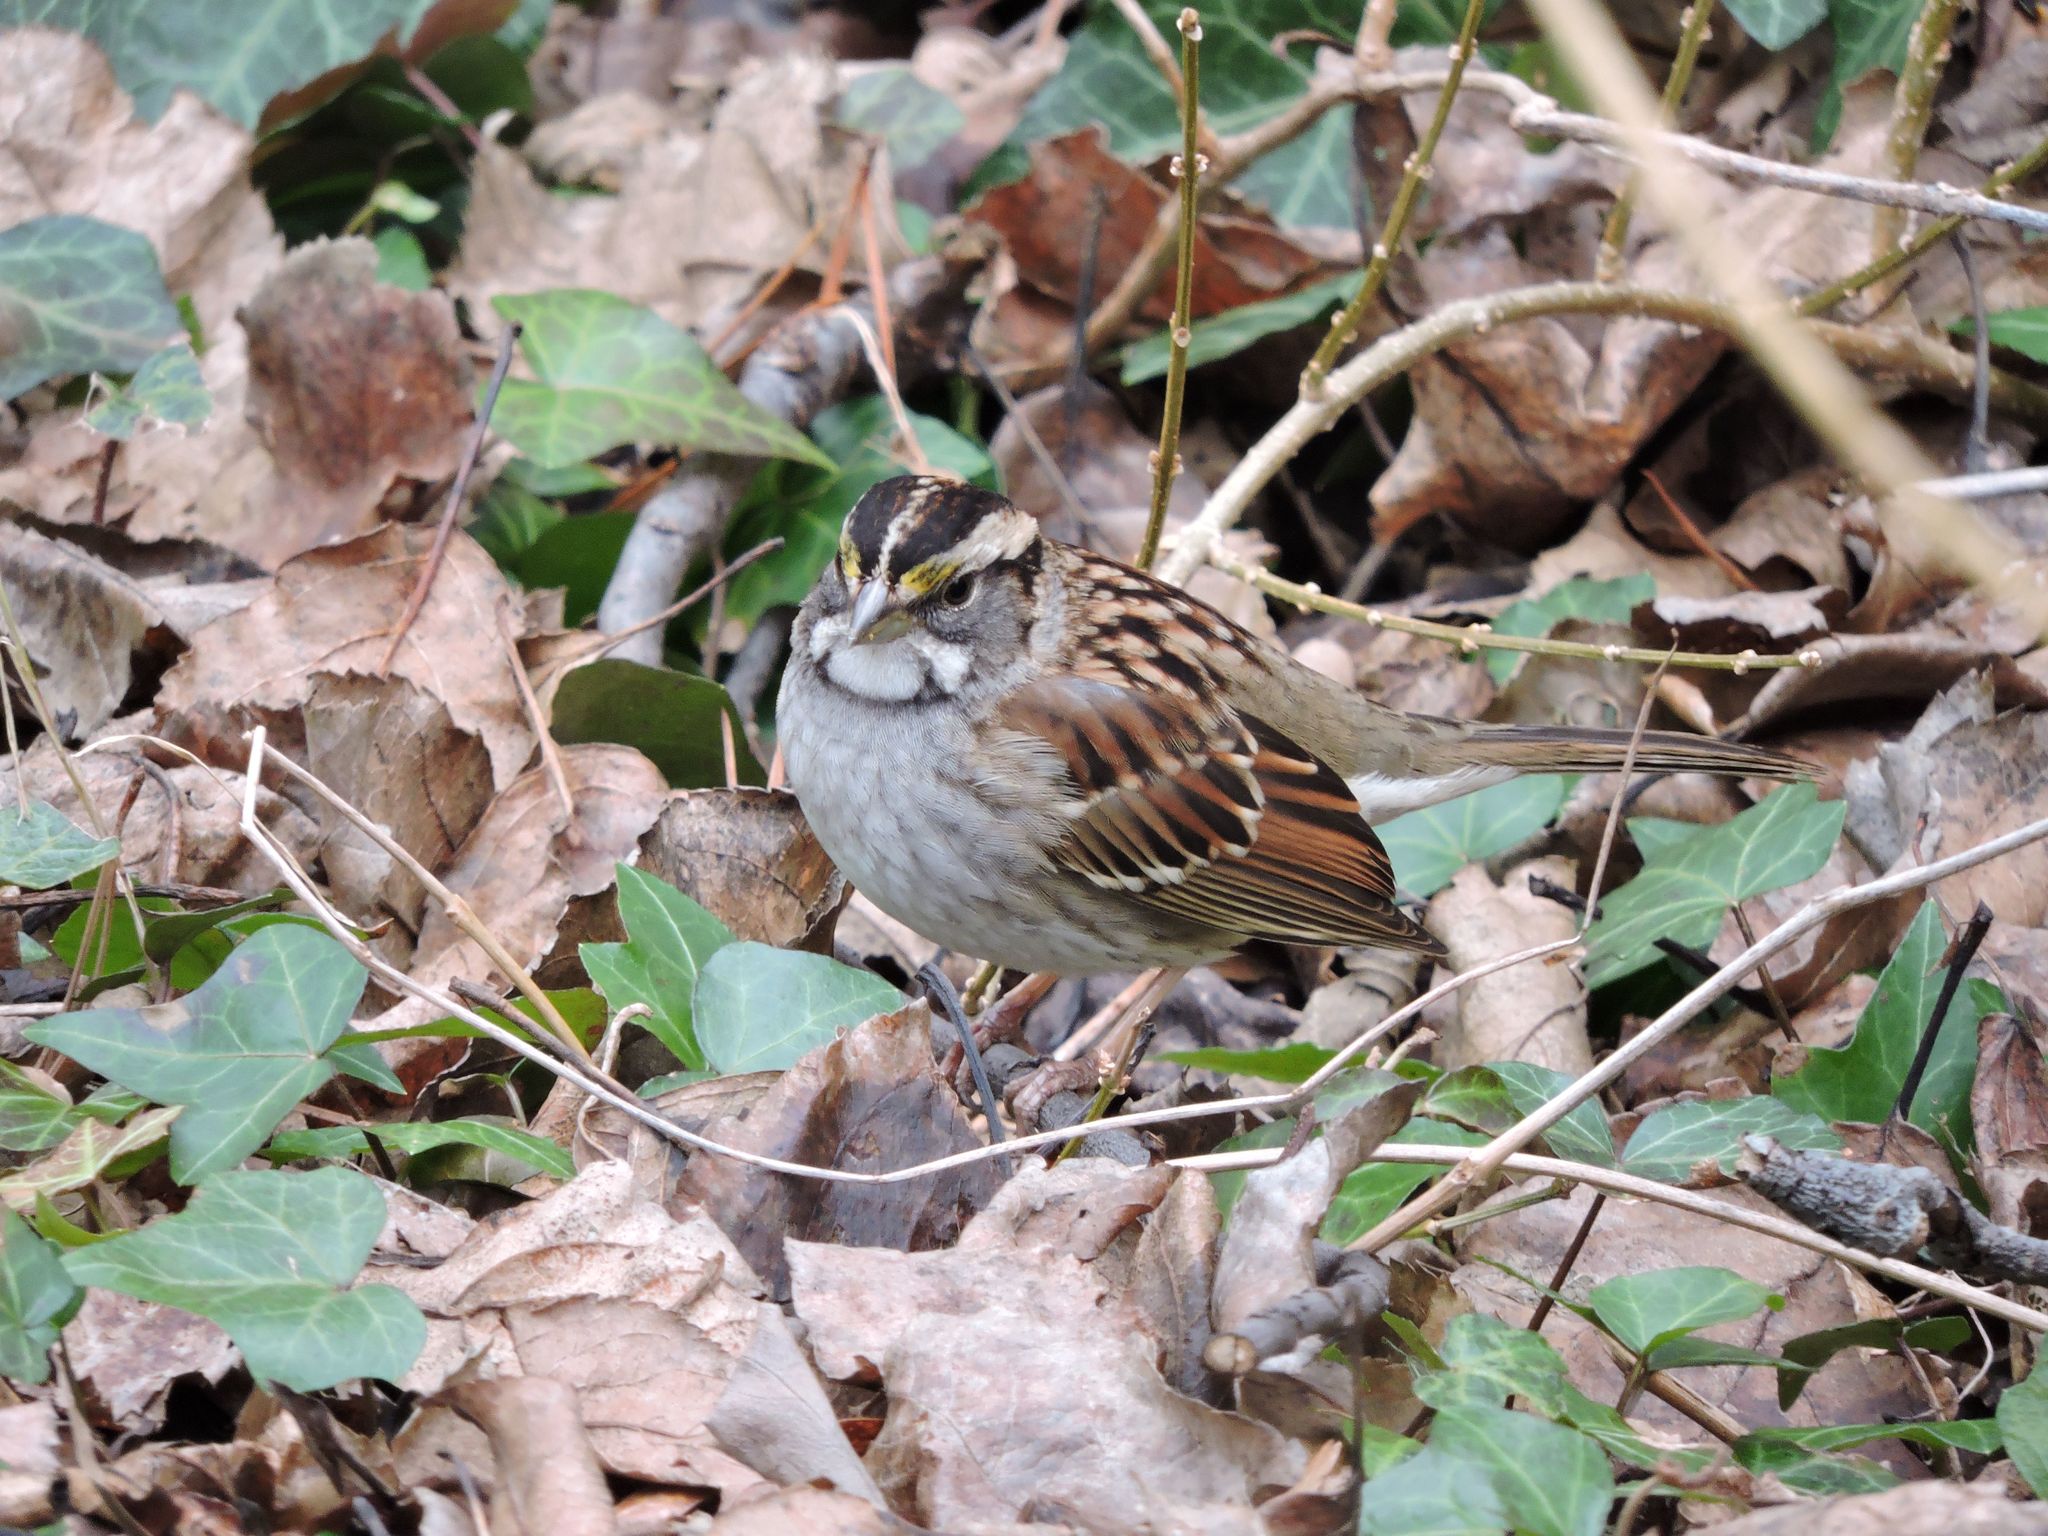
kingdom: Animalia
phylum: Chordata
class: Aves
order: Passeriformes
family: Passerellidae
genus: Zonotrichia
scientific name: Zonotrichia albicollis
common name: White-throated sparrow
